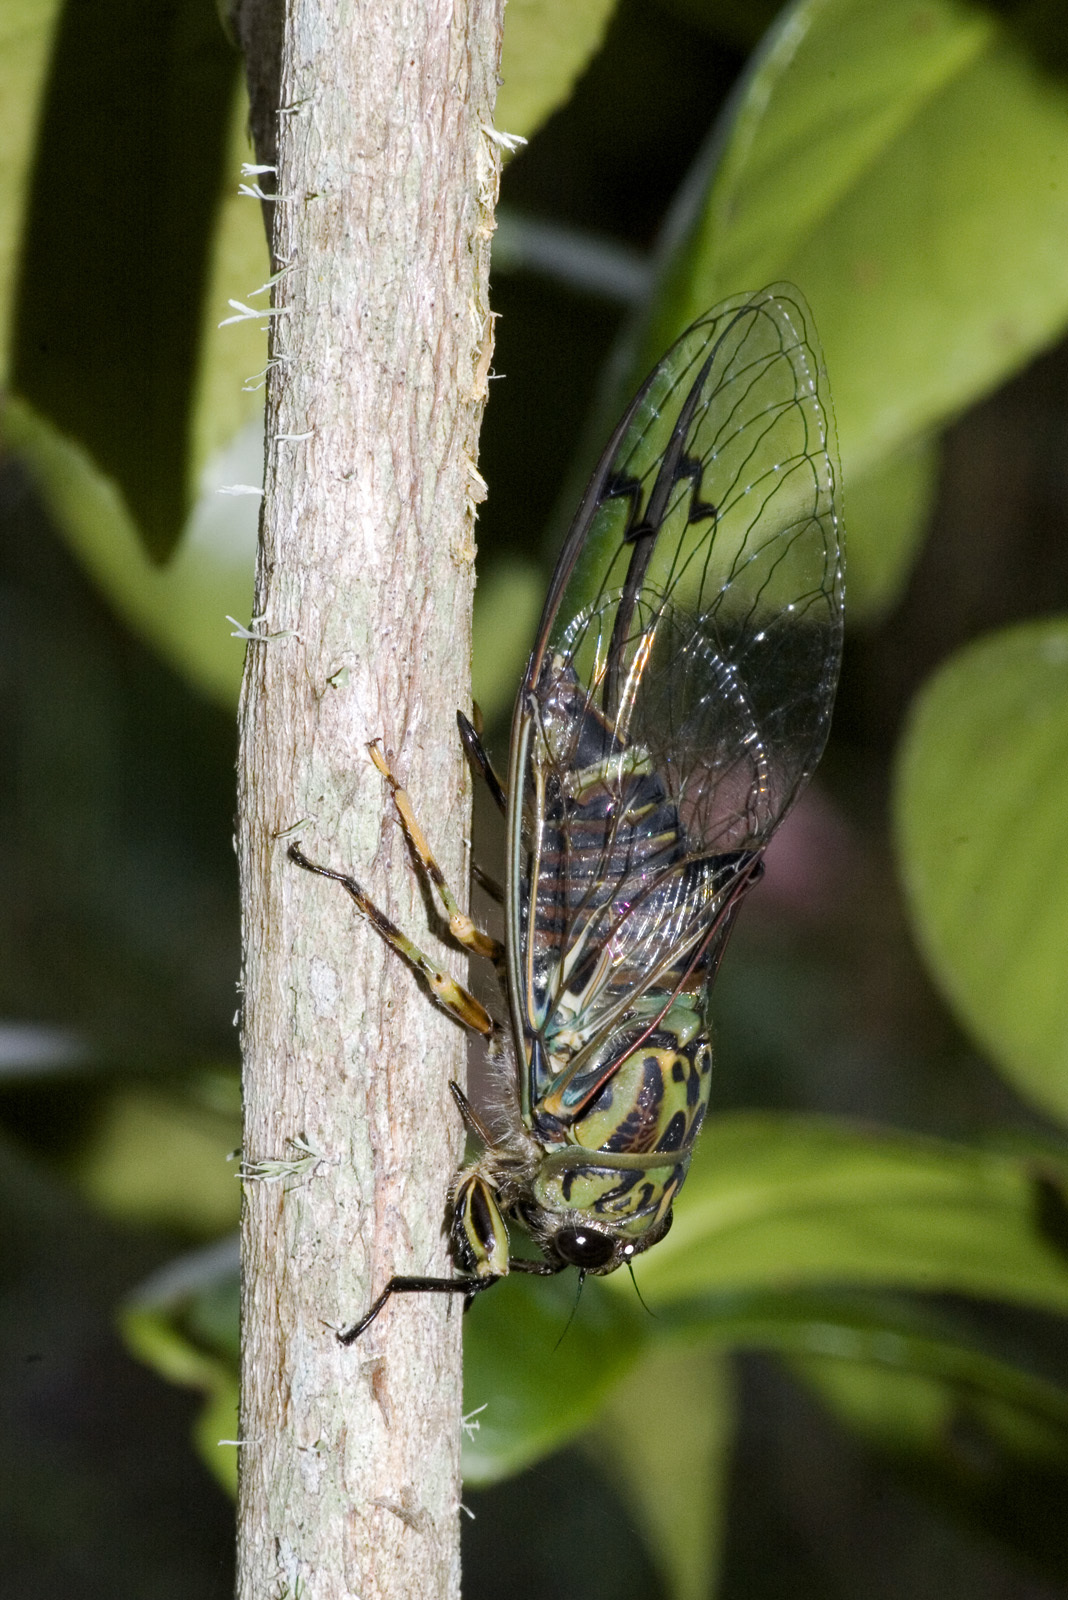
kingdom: Animalia
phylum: Arthropoda
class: Insecta
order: Hemiptera
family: Cicadidae
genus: Amphipsalta
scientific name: Amphipsalta zelandica
